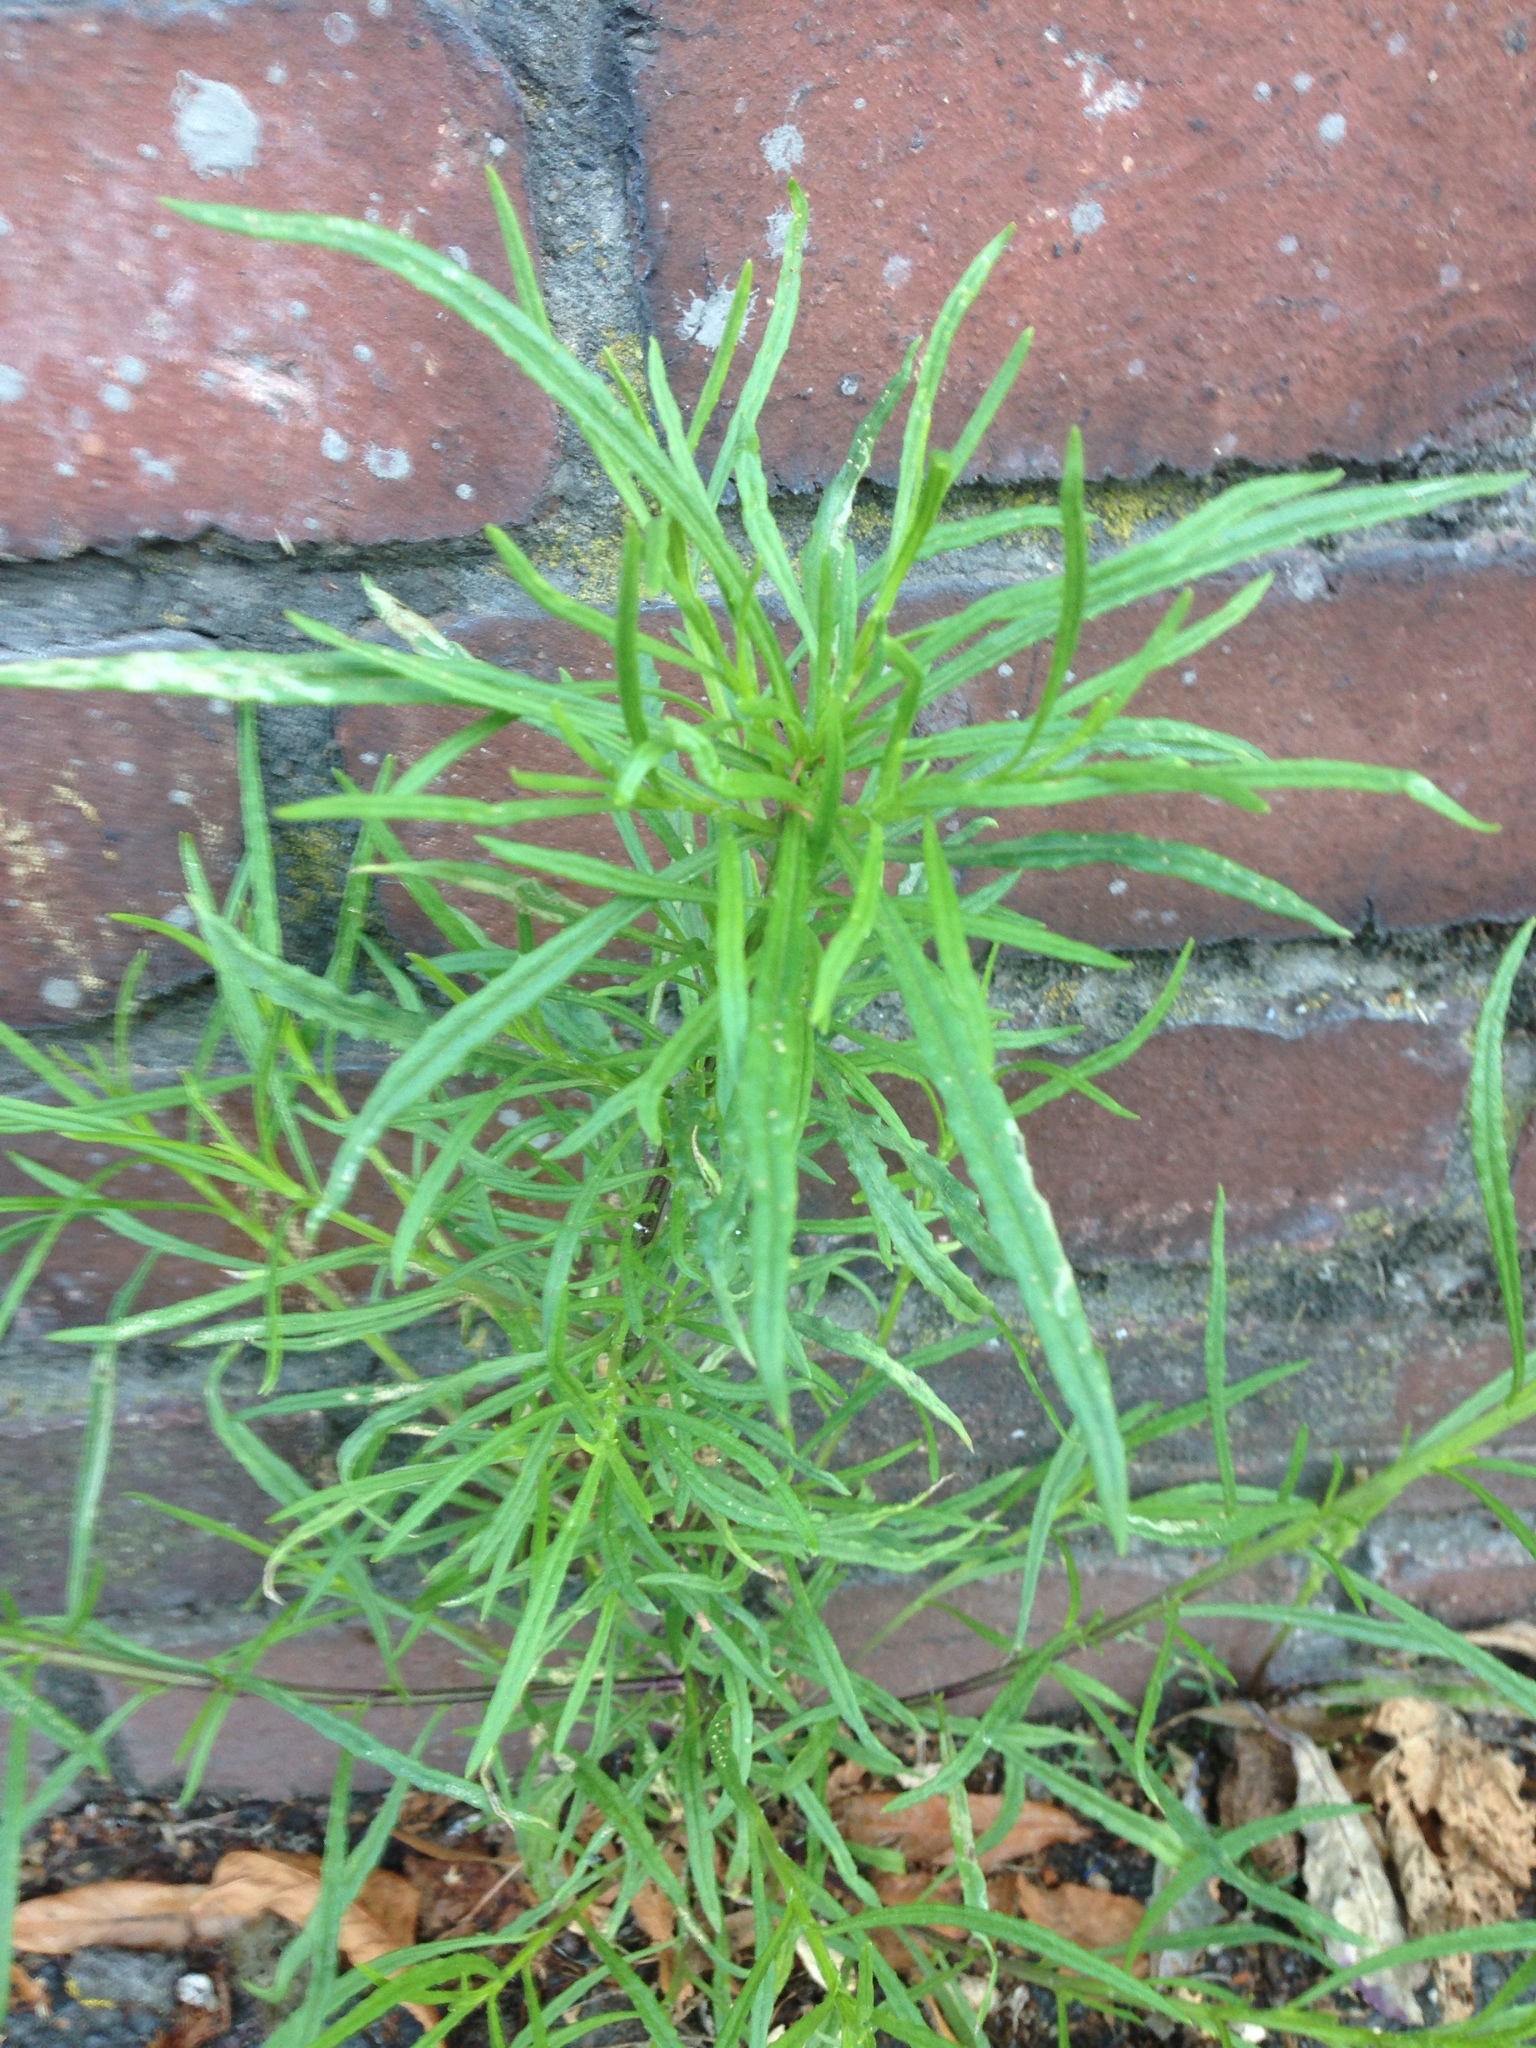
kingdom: Plantae
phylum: Tracheophyta
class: Magnoliopsida
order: Asterales
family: Asteraceae
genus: Senecio
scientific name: Senecio inaequidens
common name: Narrow-leaved ragwort
